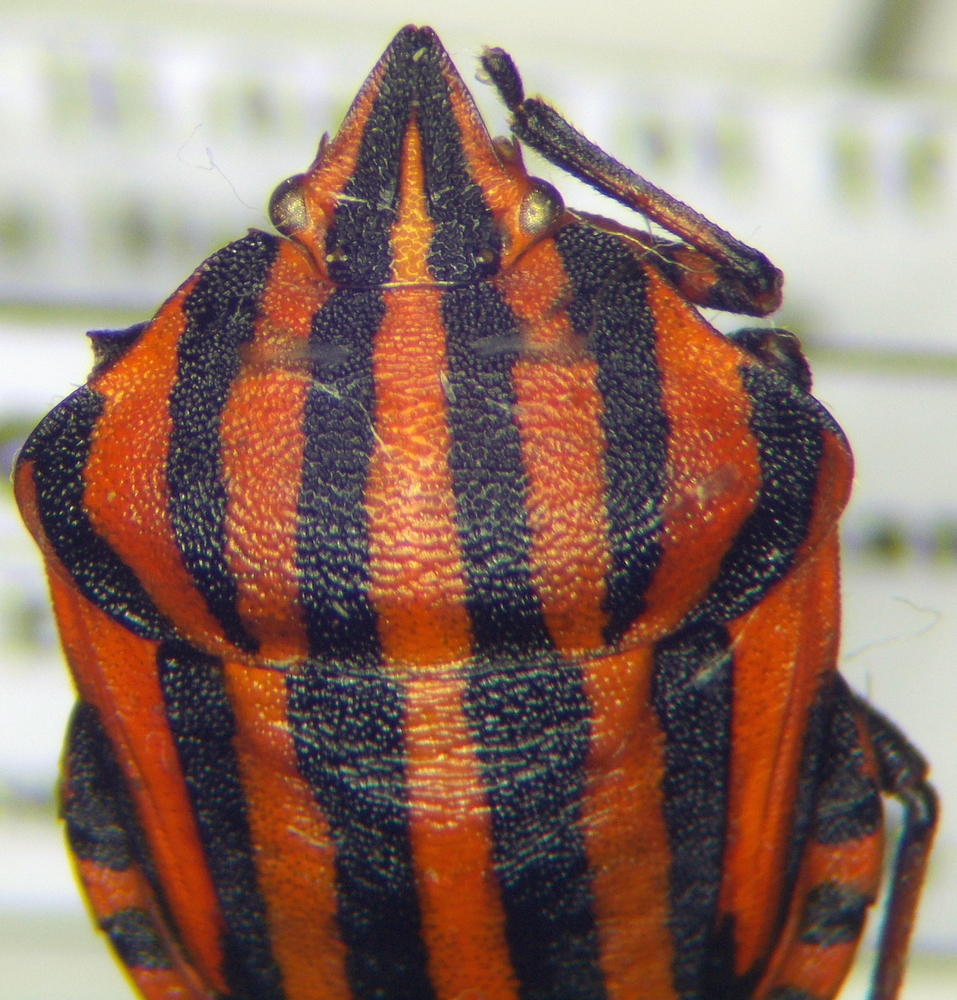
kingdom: Animalia
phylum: Arthropoda
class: Insecta
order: Hemiptera
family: Pentatomidae
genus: Graphosoma
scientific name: Graphosoma italicum
